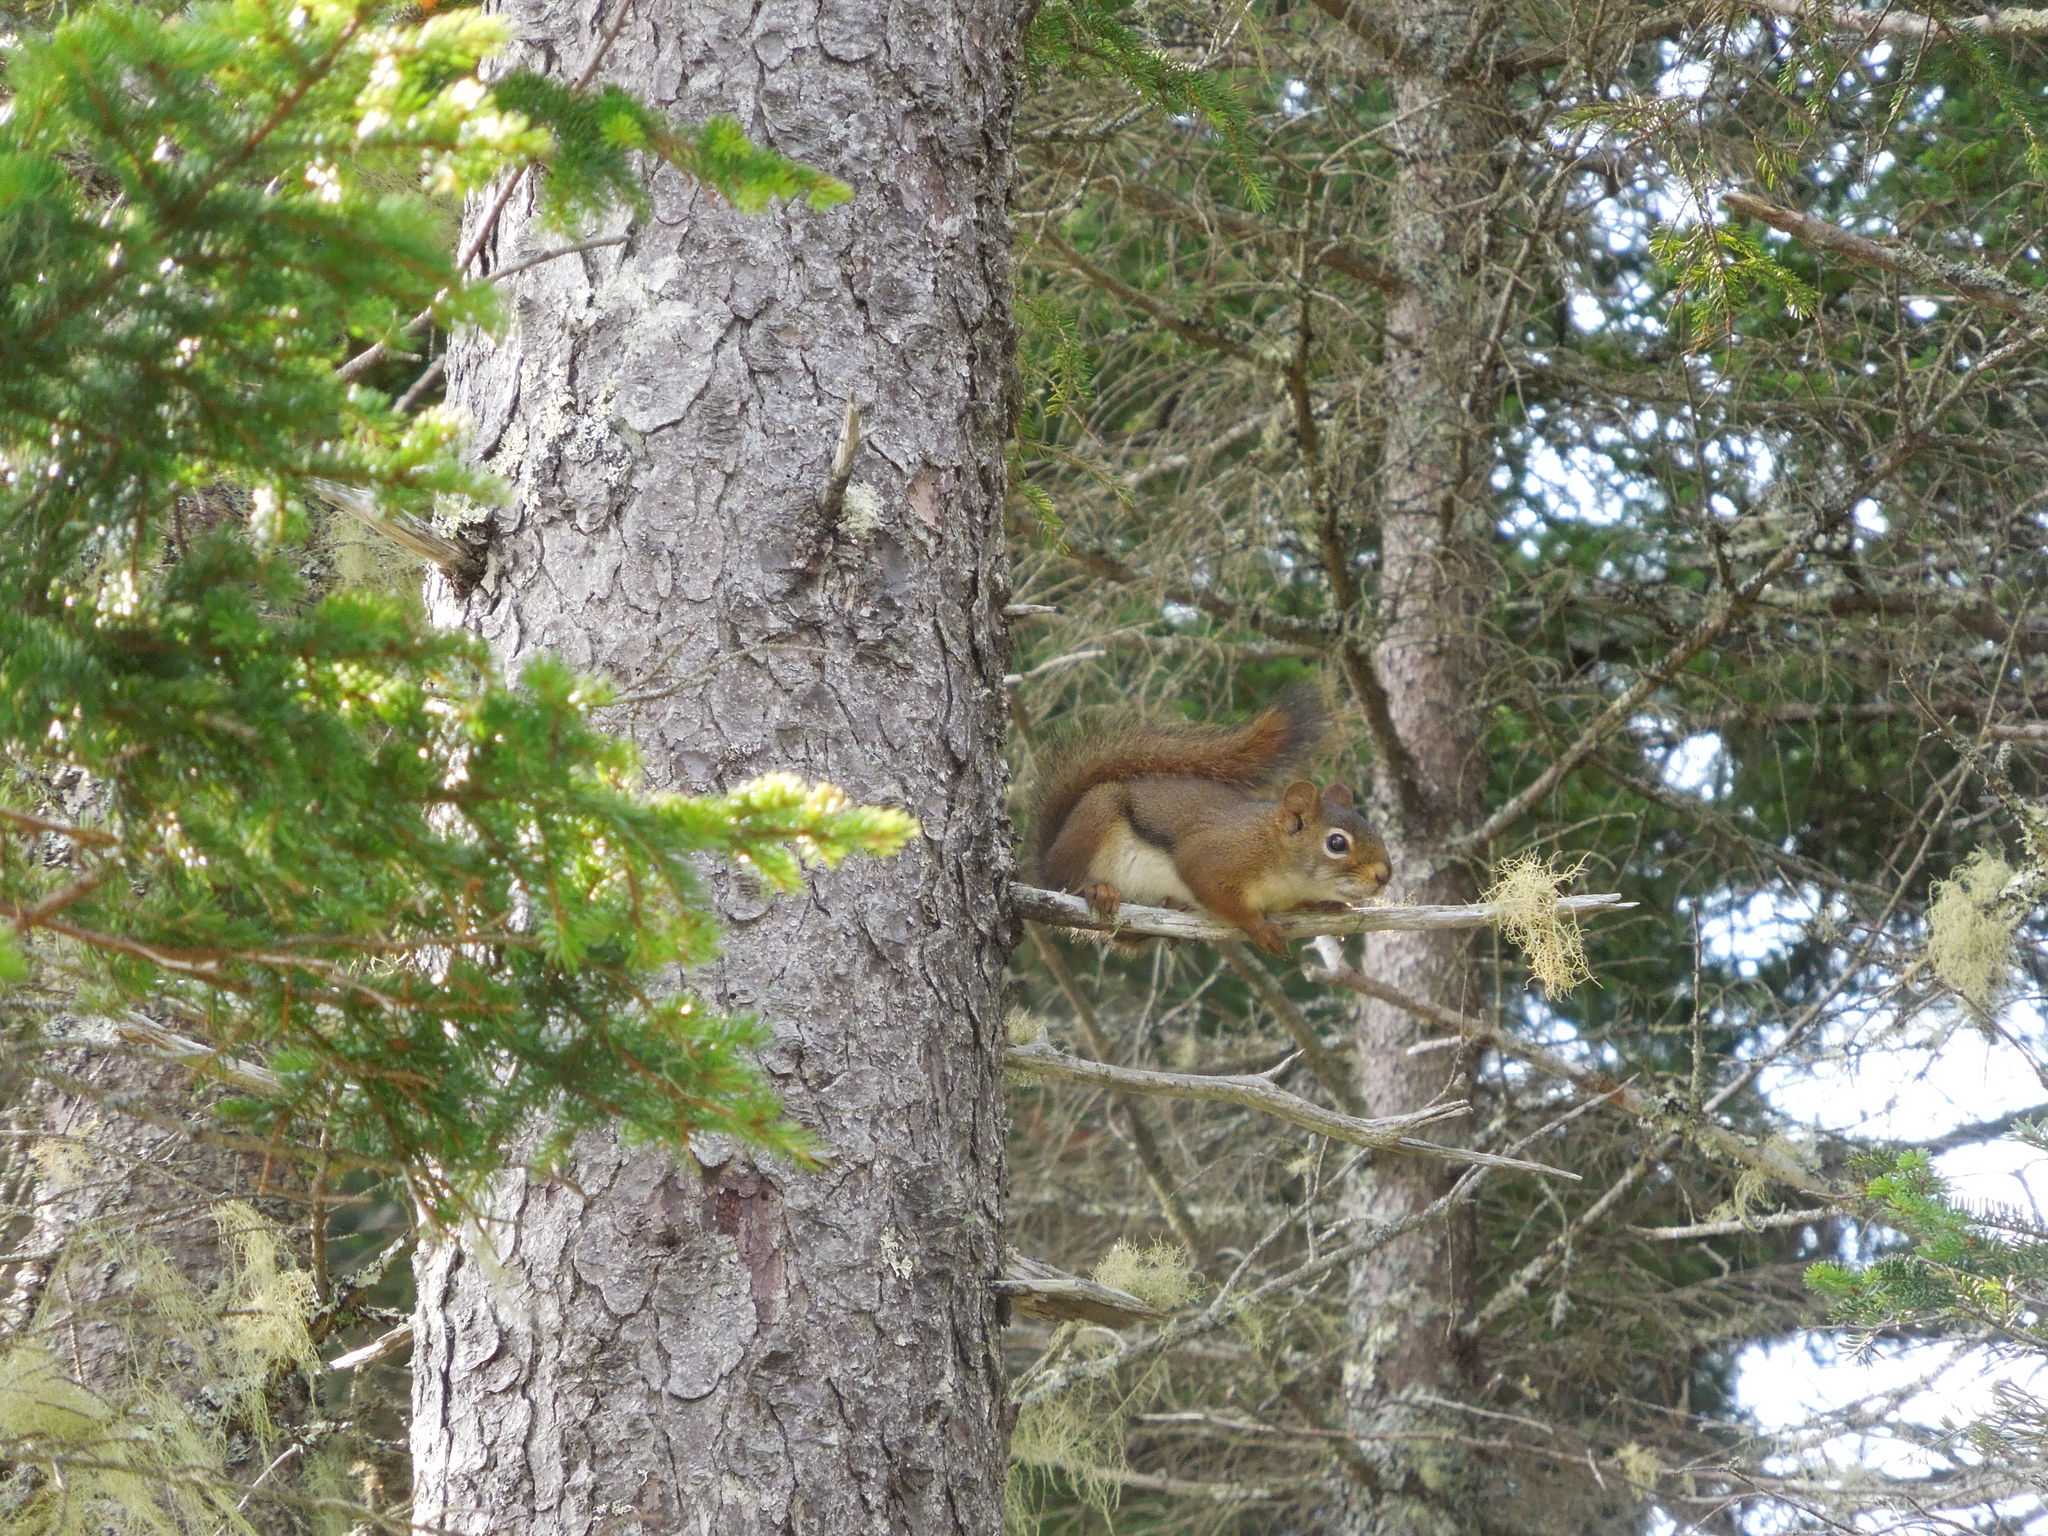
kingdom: Animalia
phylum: Chordata
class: Mammalia
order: Rodentia
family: Sciuridae
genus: Tamiasciurus
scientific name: Tamiasciurus hudsonicus
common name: Red squirrel
